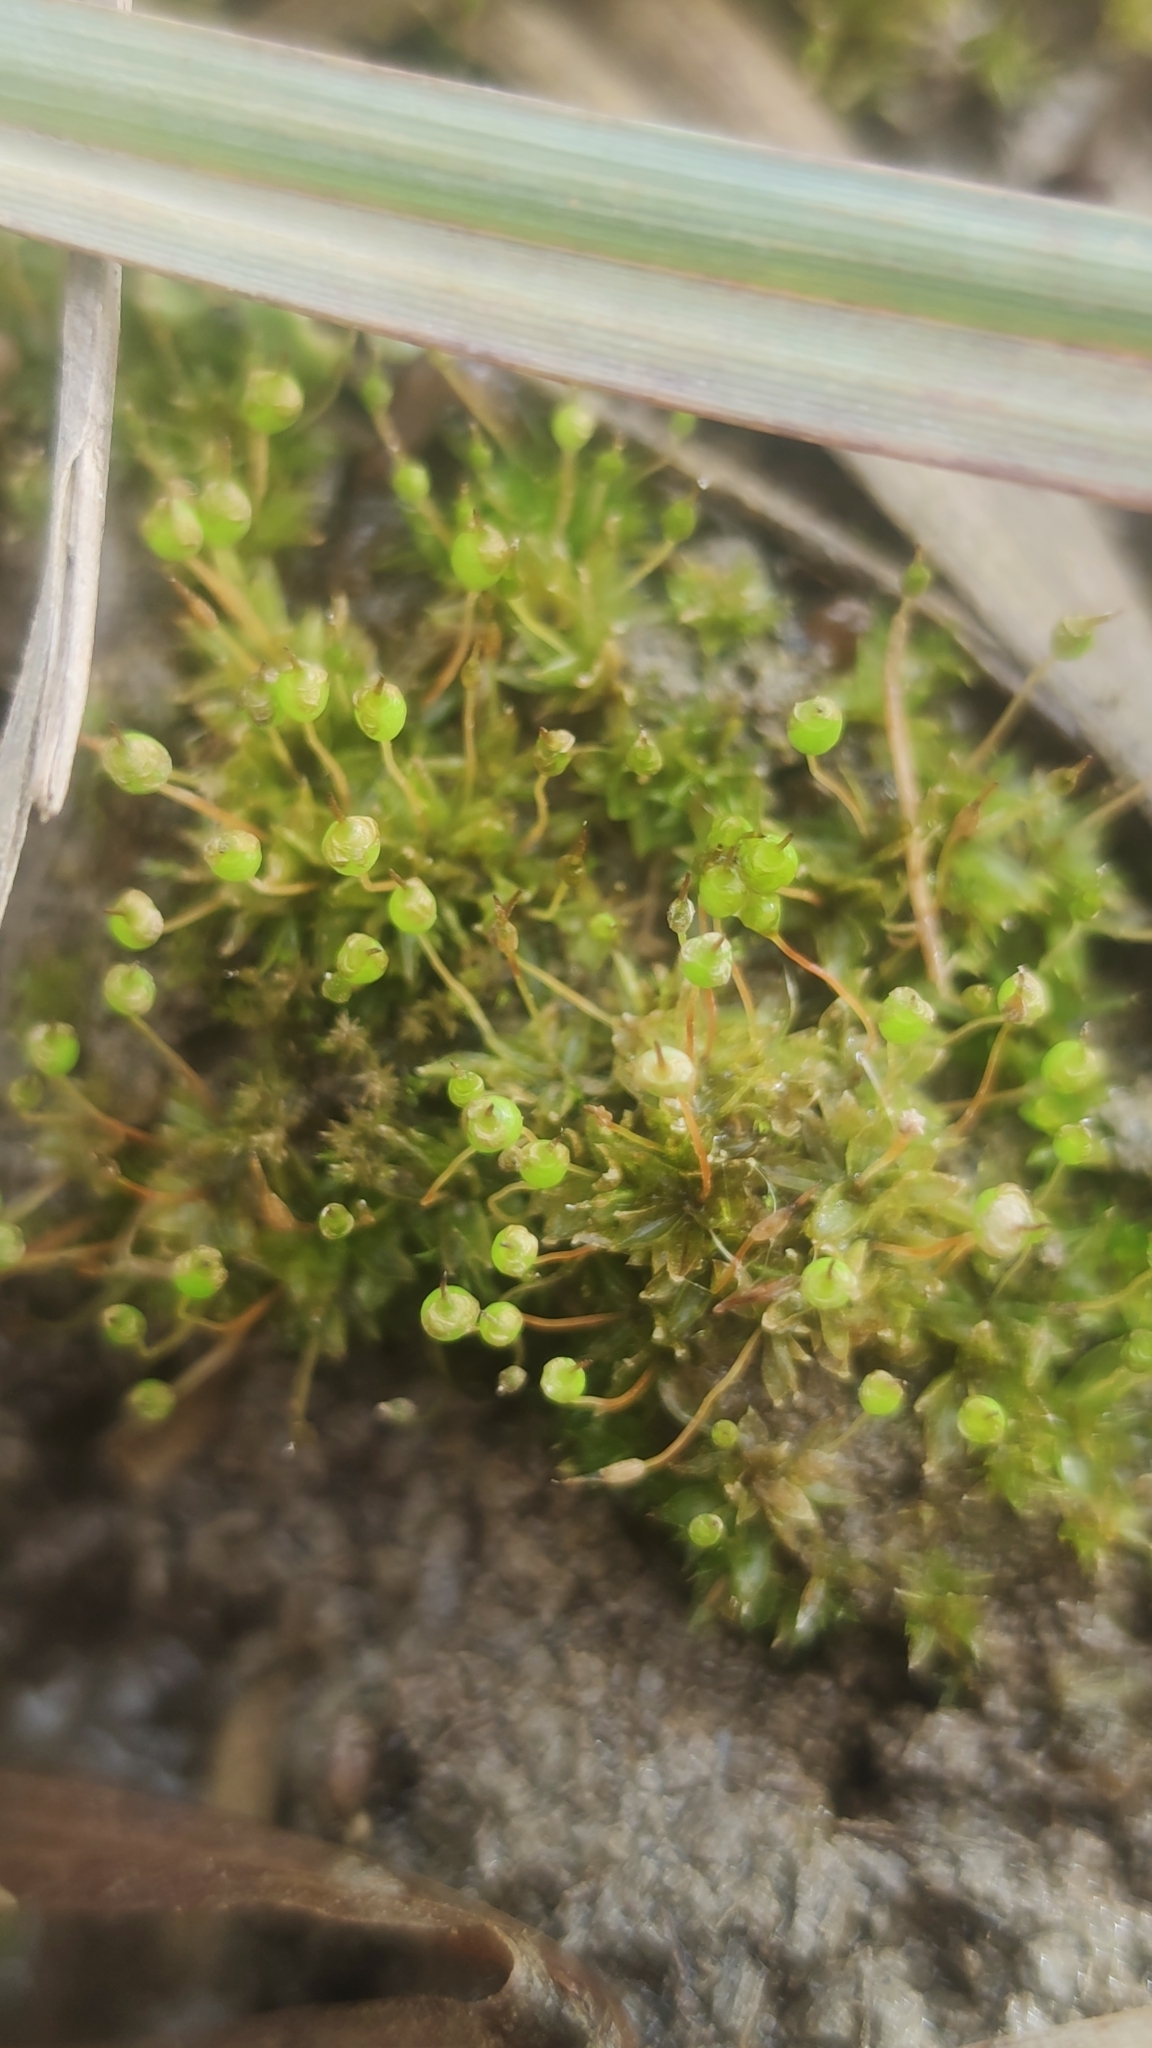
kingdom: Plantae
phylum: Bryophyta
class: Bryopsida
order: Funariales
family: Funariaceae
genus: Physcomitrium
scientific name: Physcomitrium pyriforme
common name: Common bladder-moss
